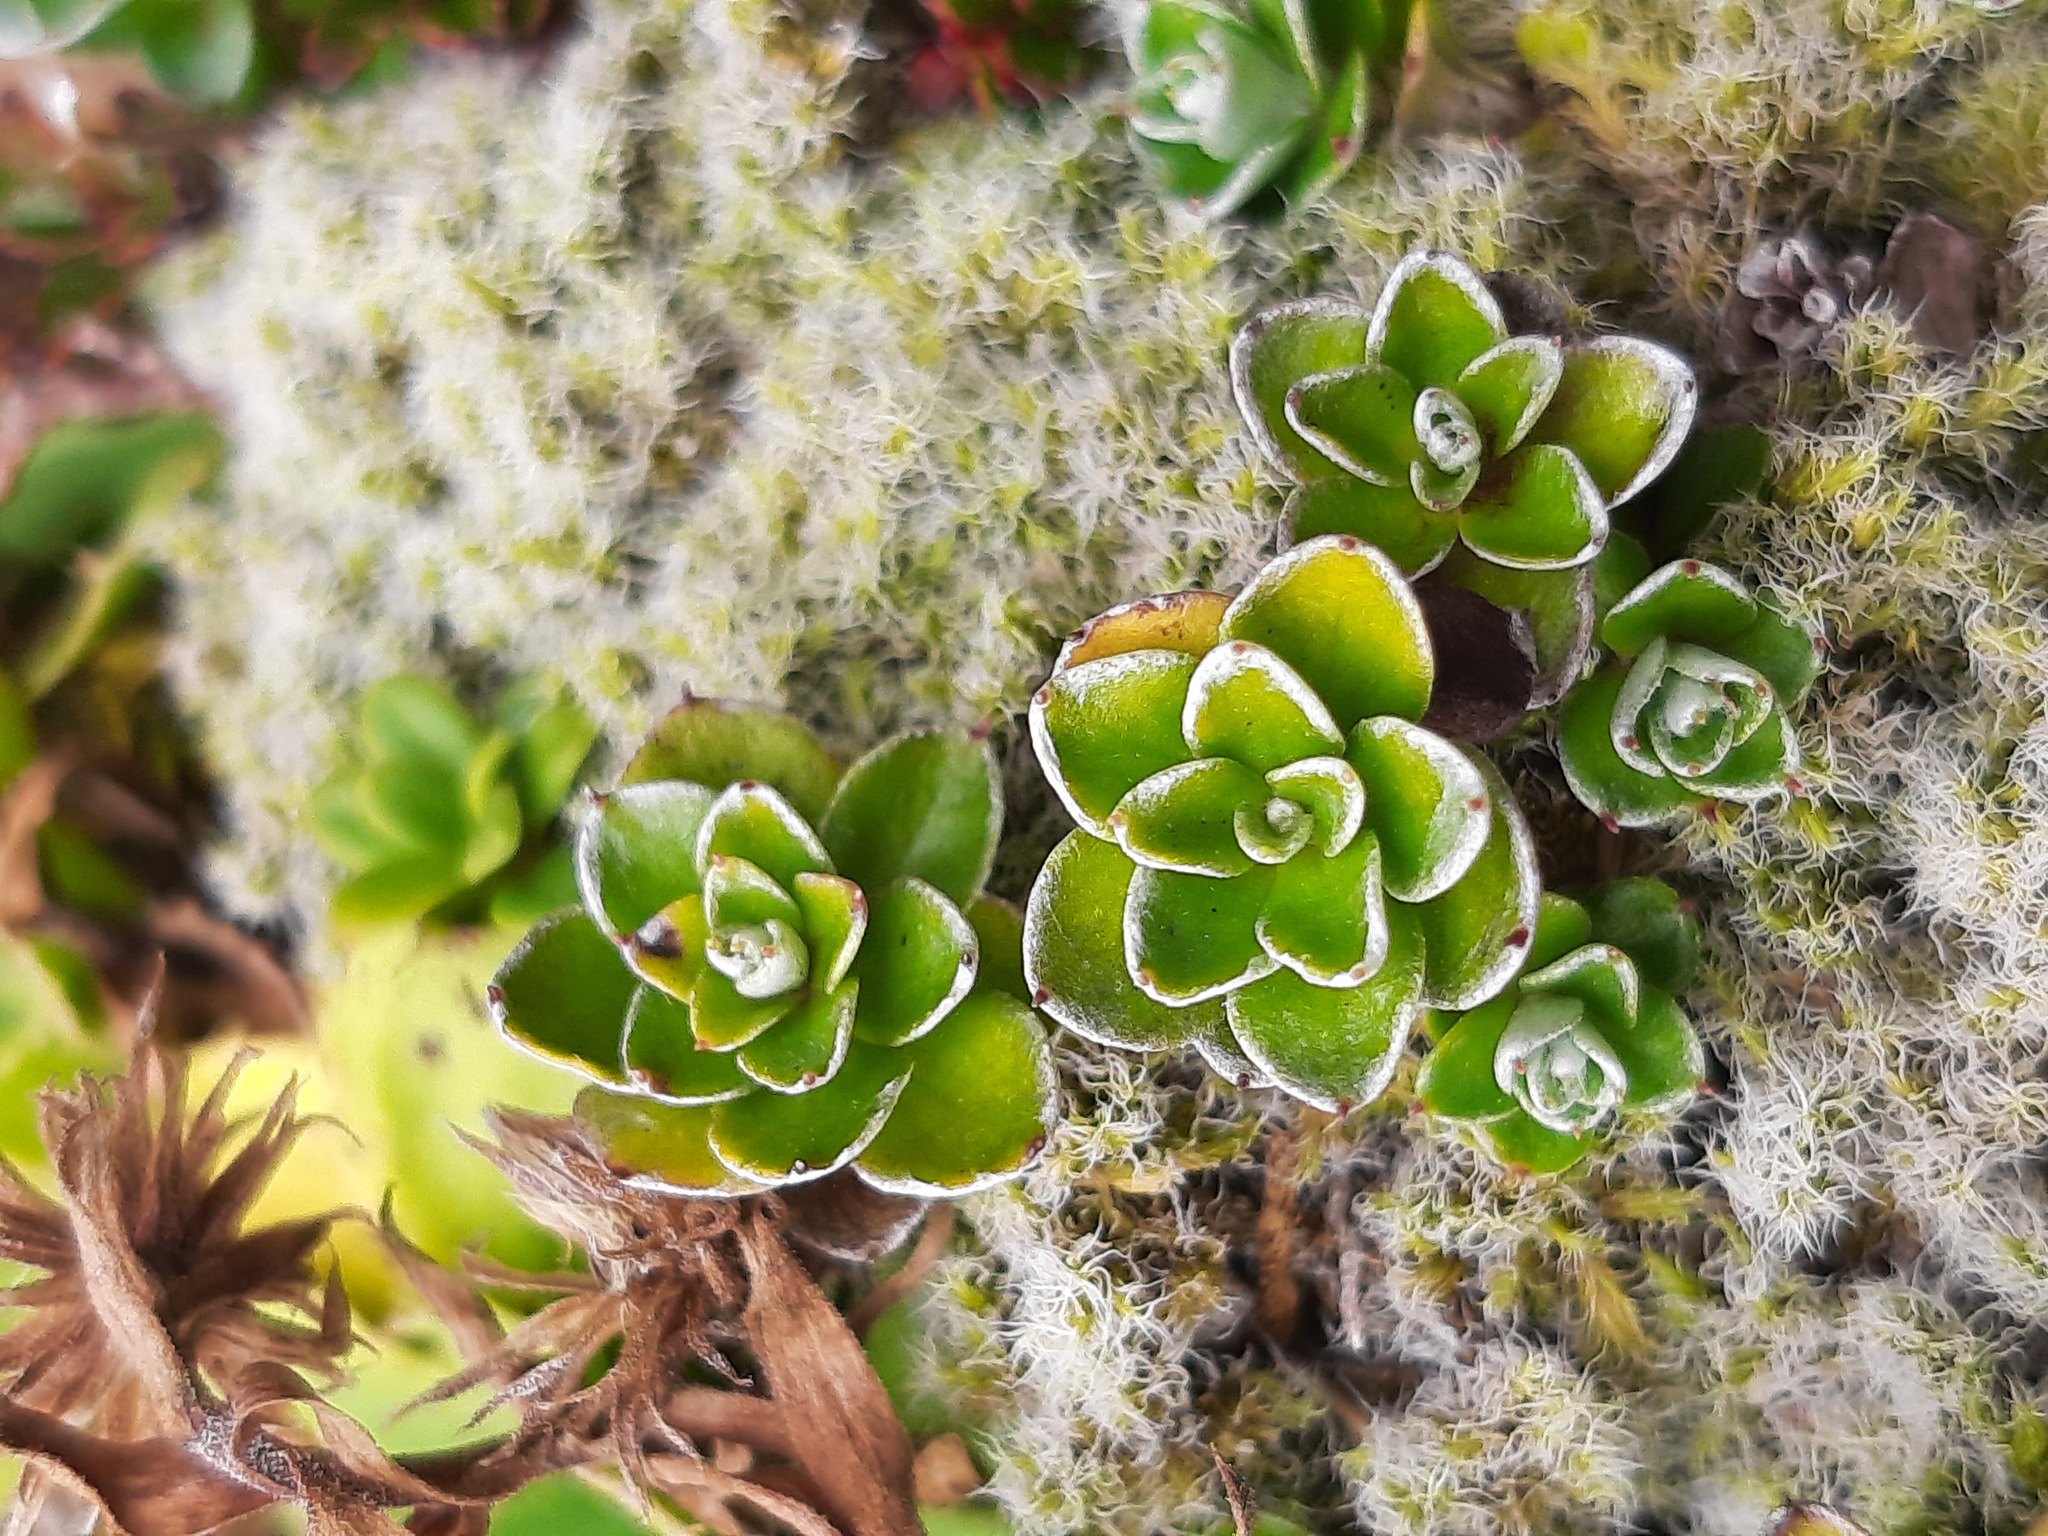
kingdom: Plantae
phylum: Tracheophyta
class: Magnoliopsida
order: Asterales
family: Asteraceae
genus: Anaphalioides
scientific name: Anaphalioides alpina
